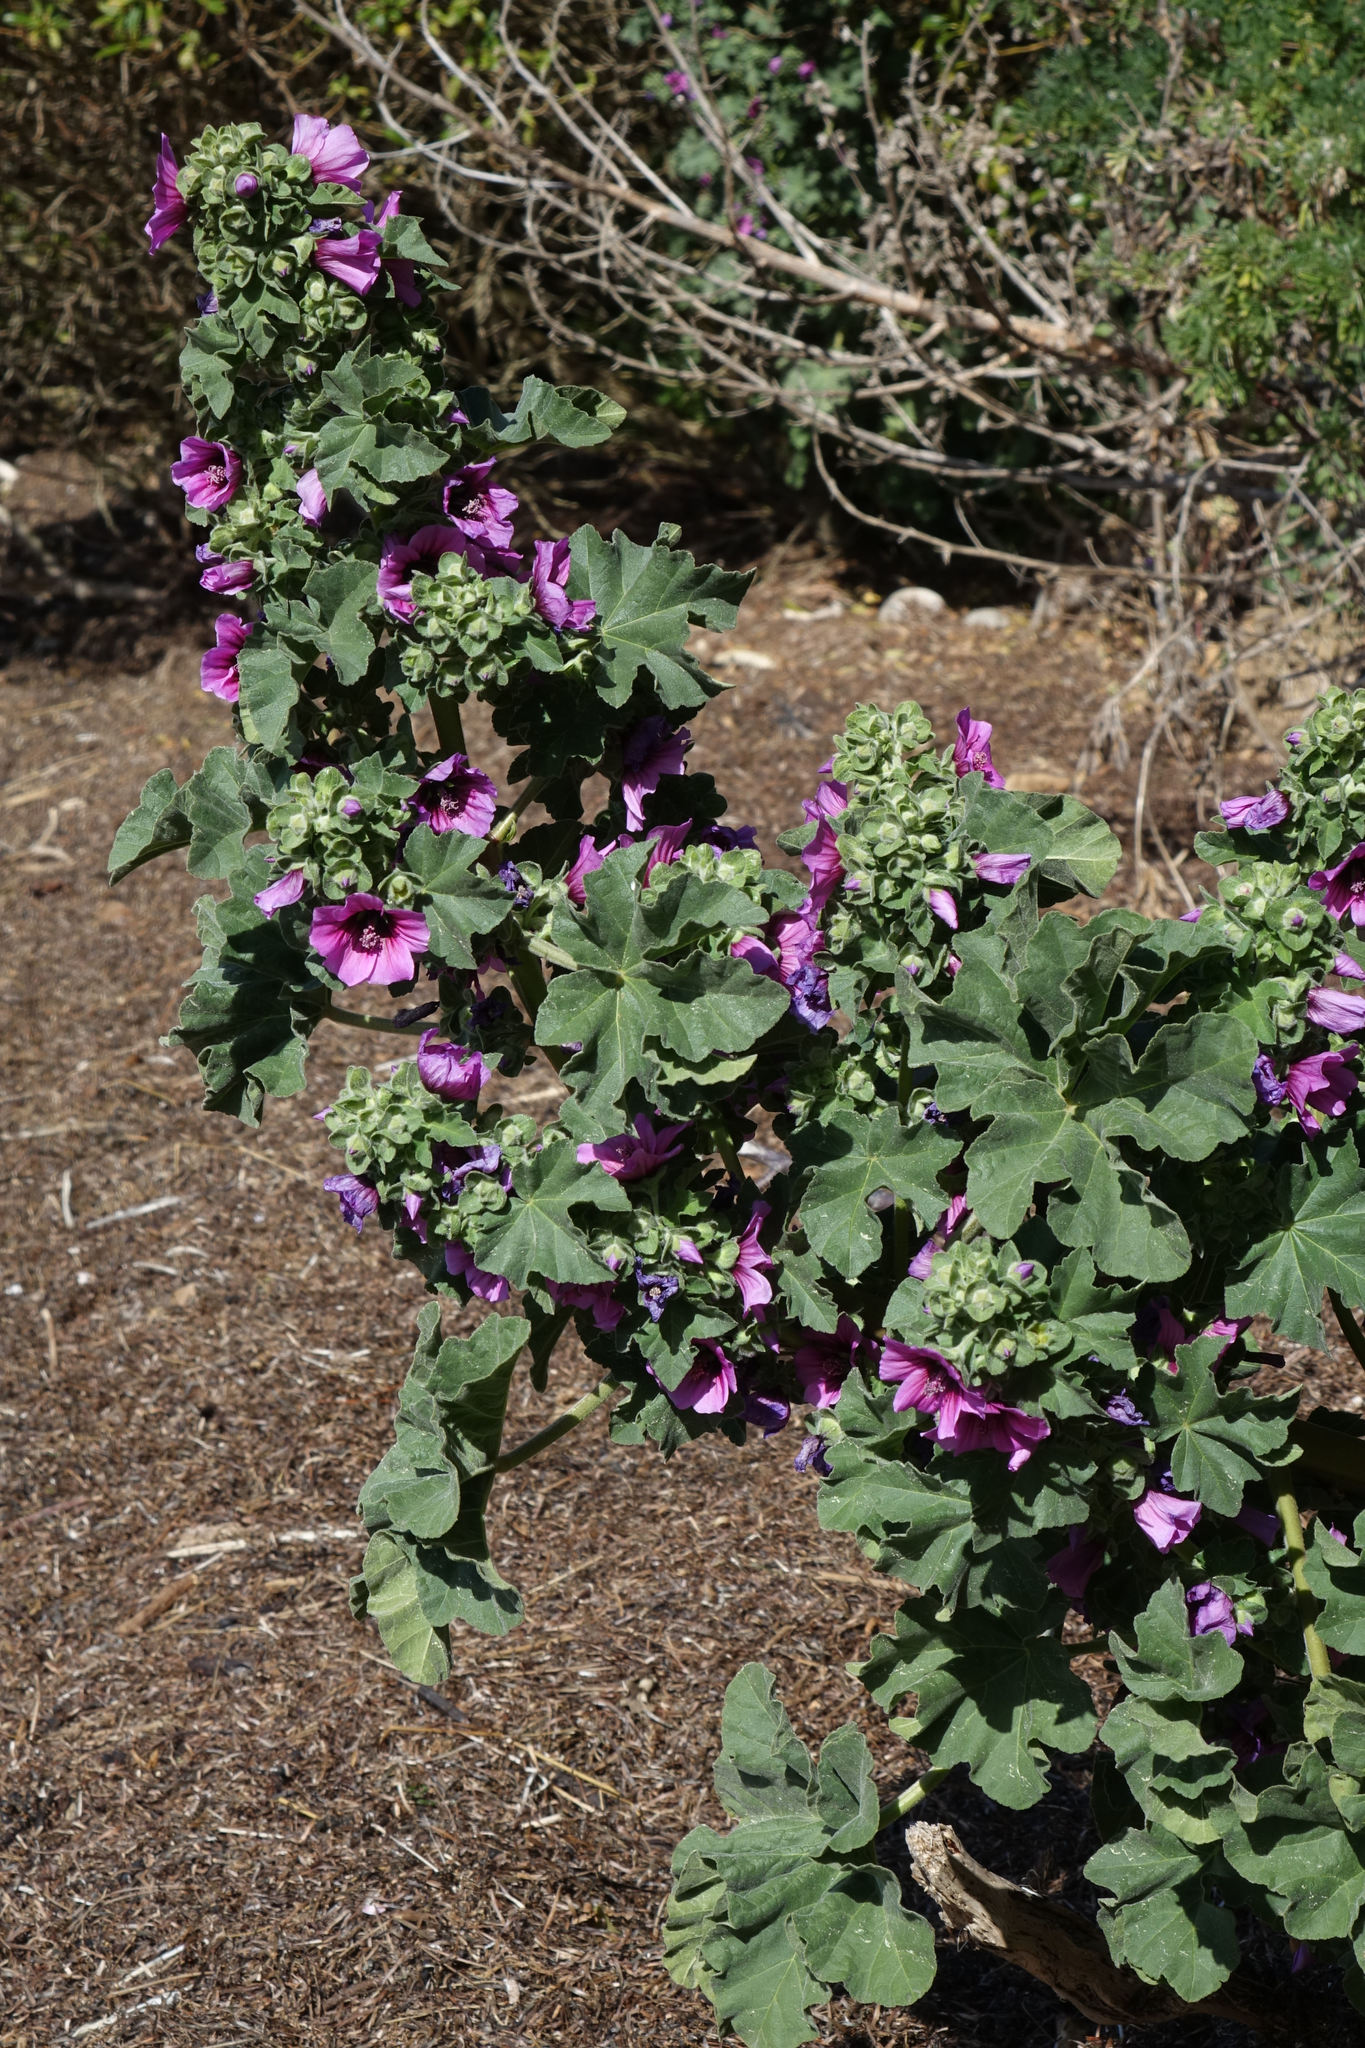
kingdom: Plantae
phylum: Tracheophyta
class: Magnoliopsida
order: Malvales
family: Malvaceae
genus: Malva
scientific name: Malva arborea
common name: Tree mallow
